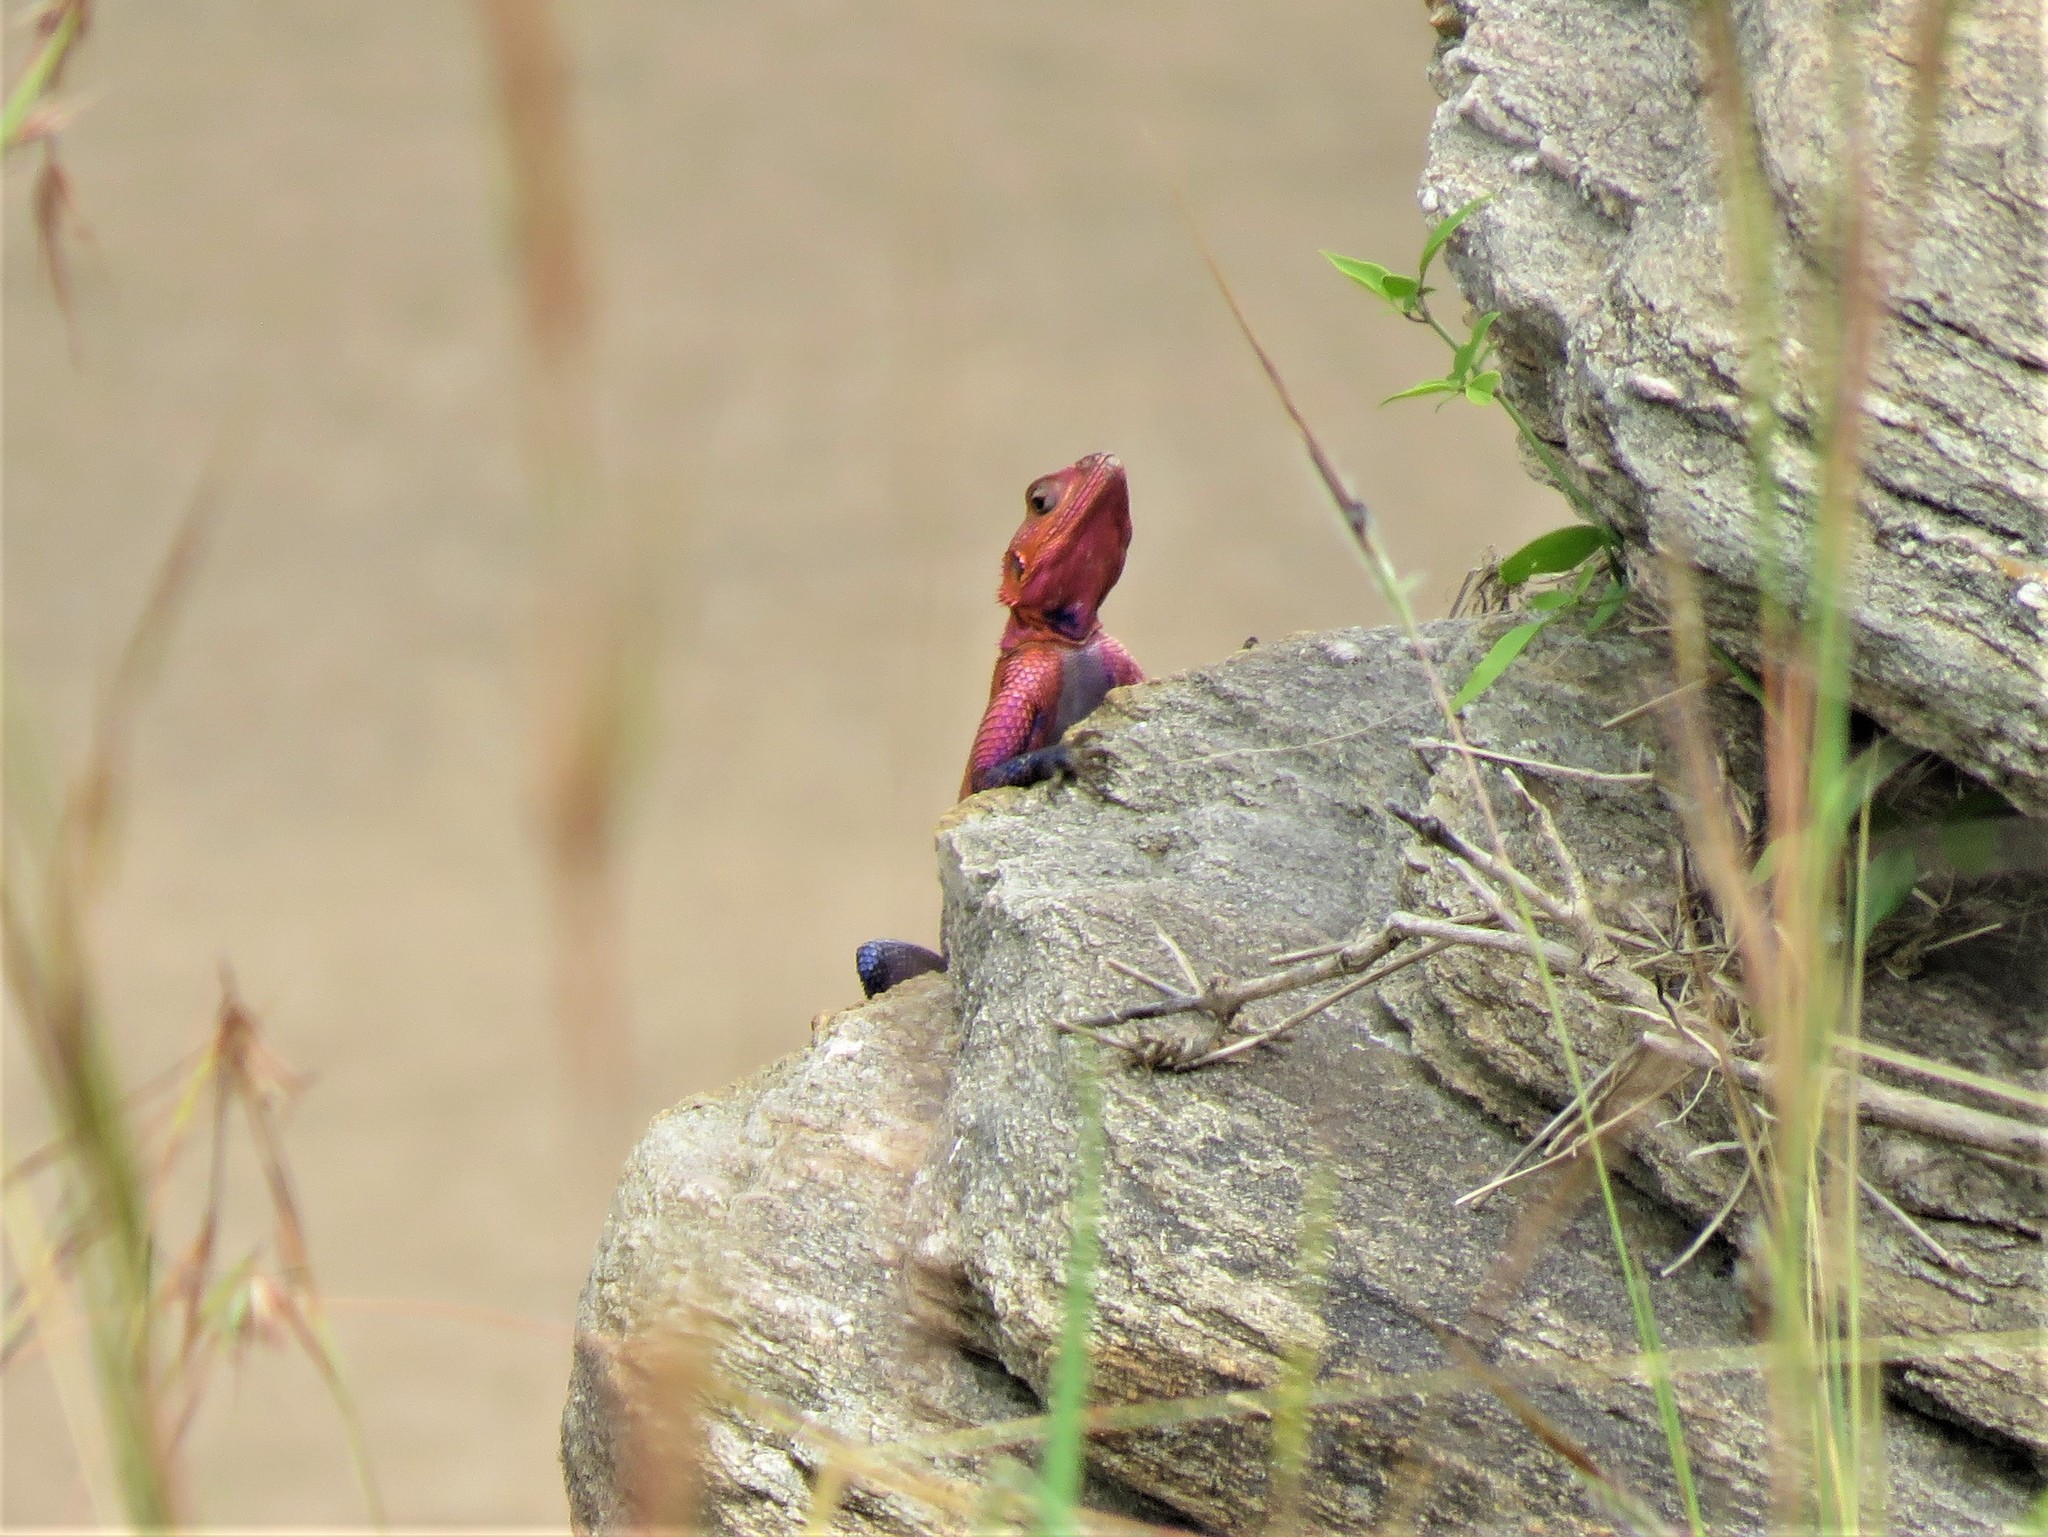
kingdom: Animalia
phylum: Chordata
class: Squamata
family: Agamidae
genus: Agama
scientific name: Agama mwanzae
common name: Mwanza flat-headed agama
